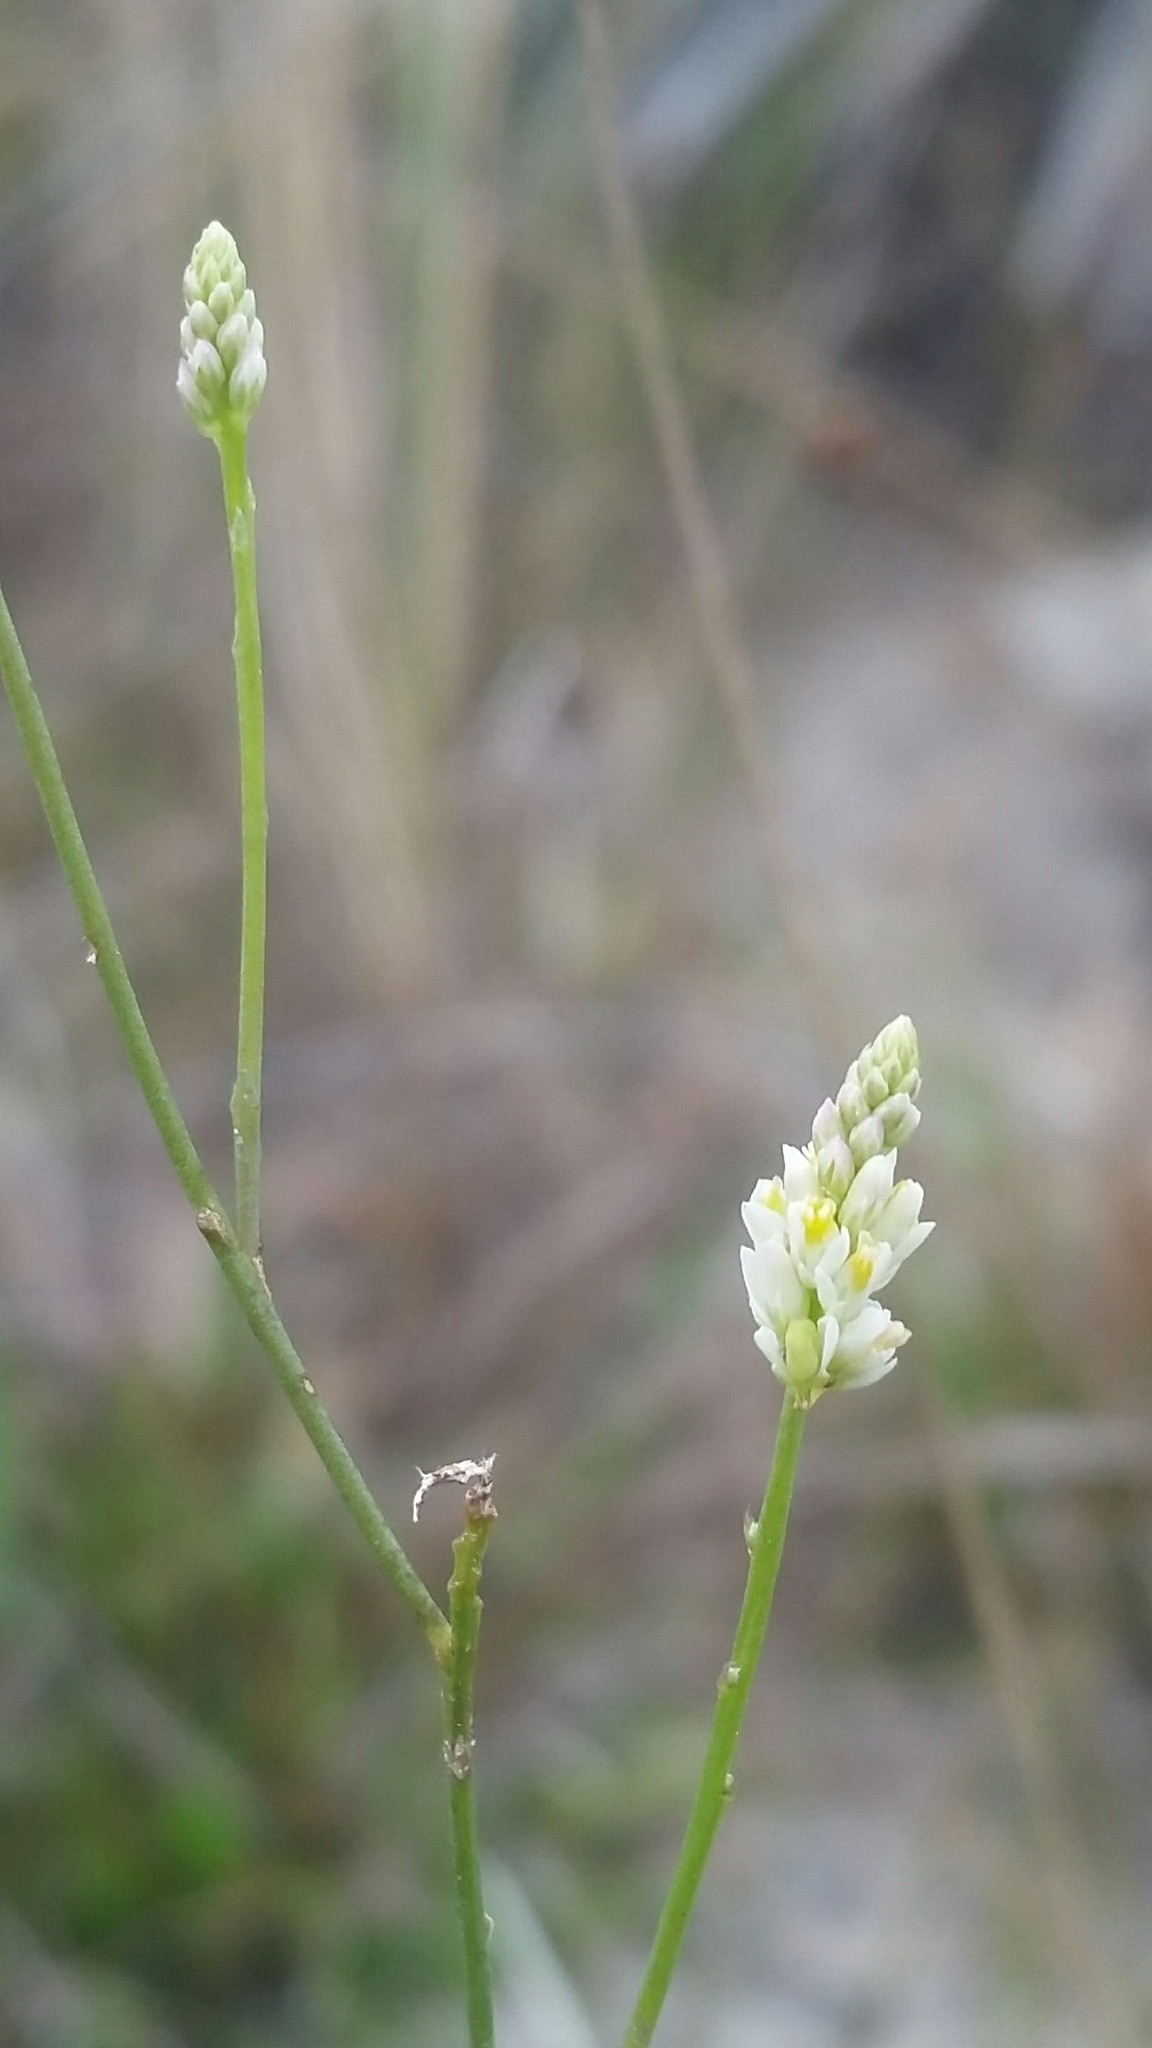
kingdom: Plantae
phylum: Tracheophyta
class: Magnoliopsida
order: Fabales
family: Polygalaceae
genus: Polygala
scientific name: Polygala setacea
